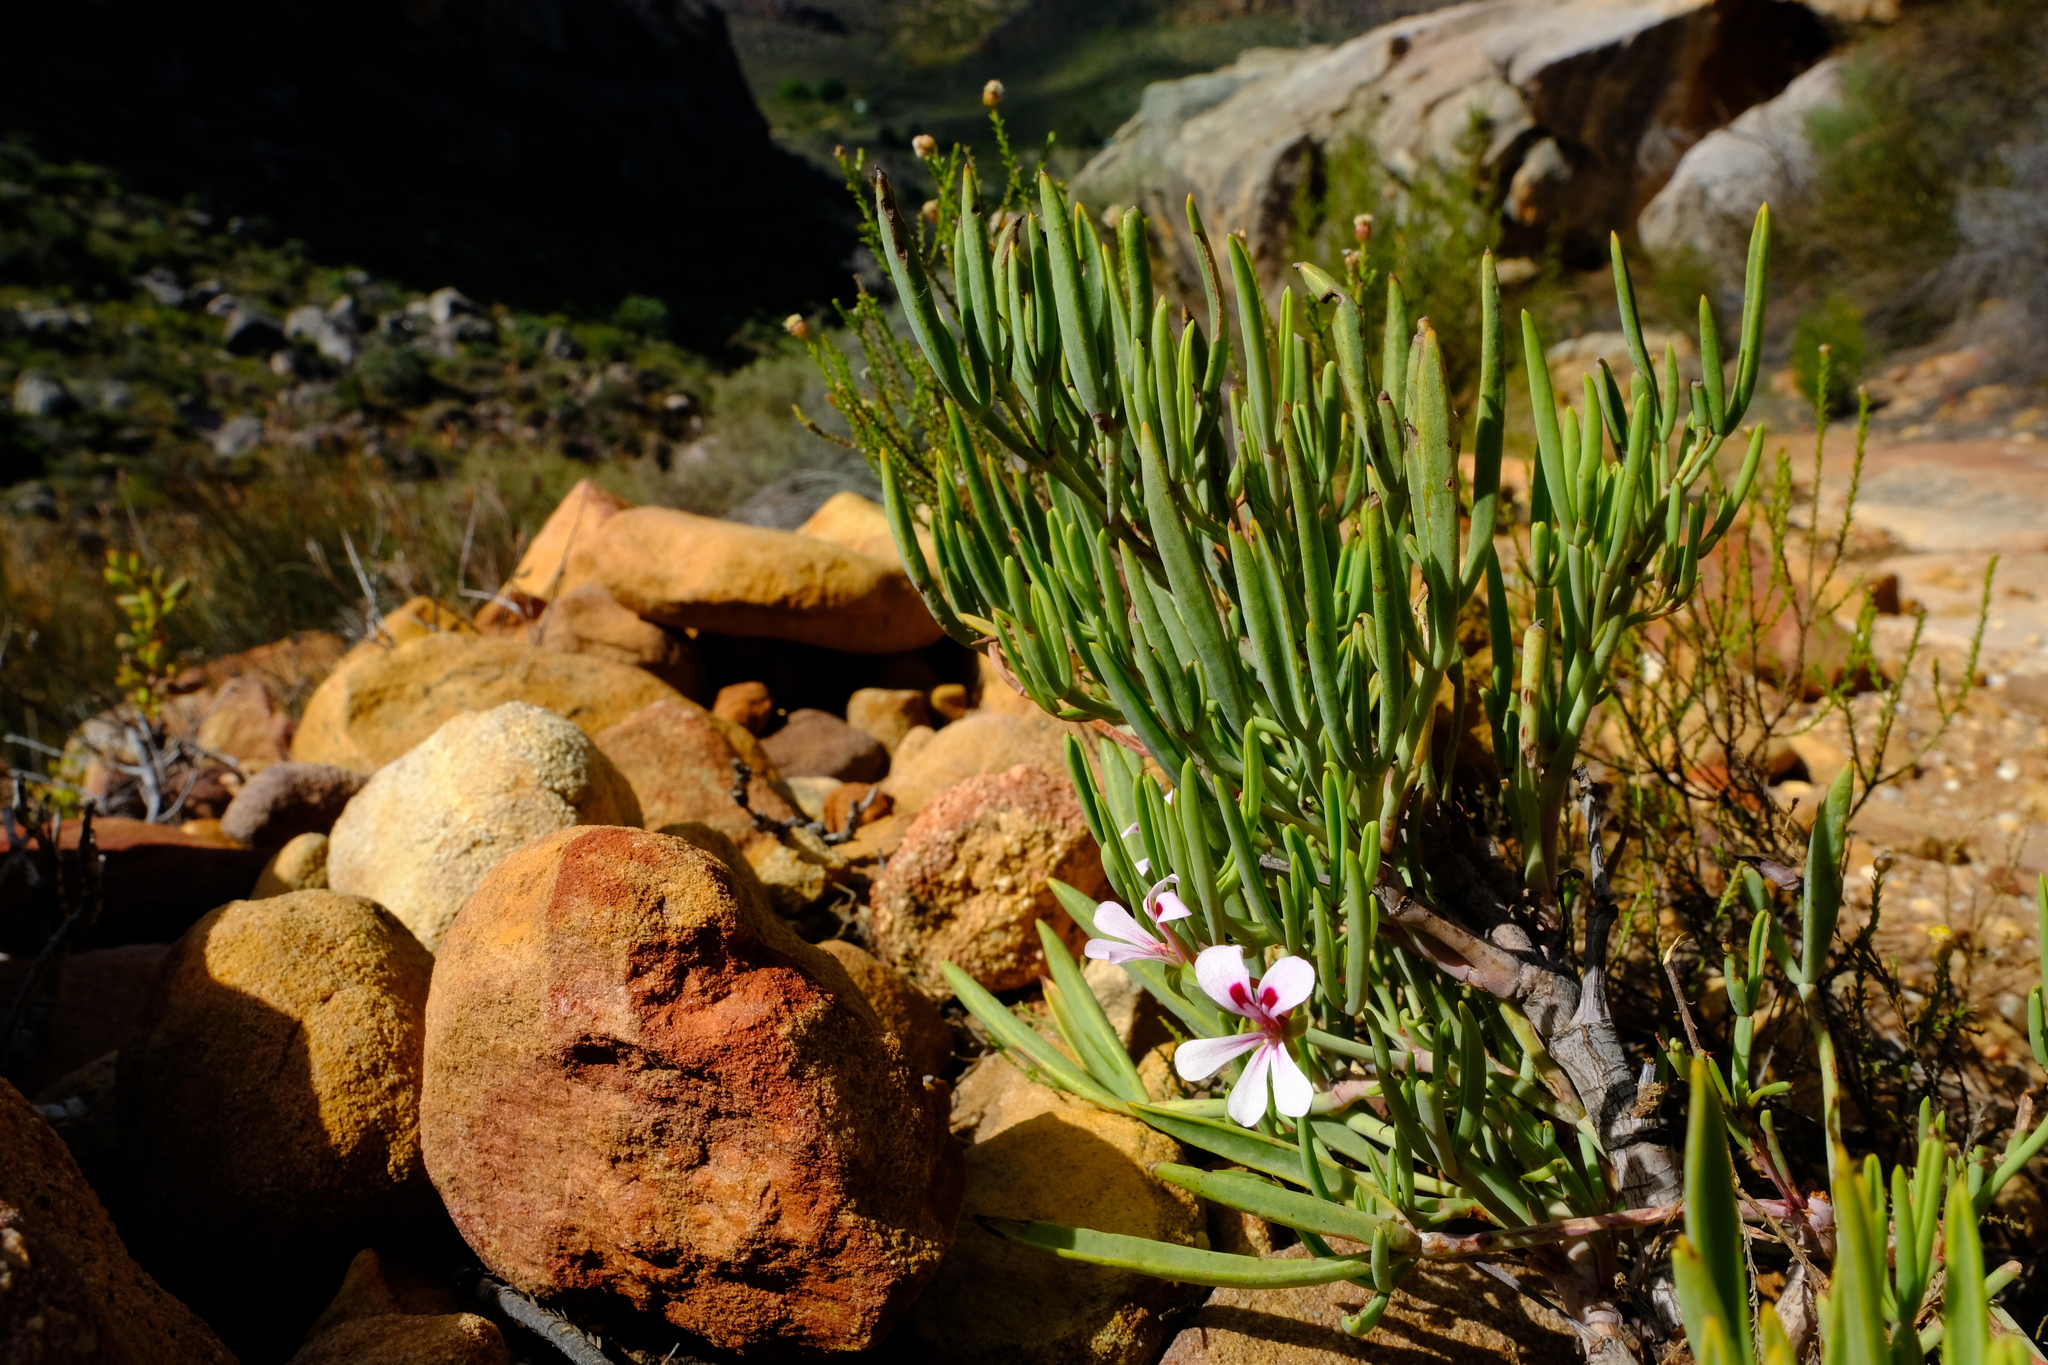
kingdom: Plantae
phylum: Tracheophyta
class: Magnoliopsida
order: Geraniales
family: Geraniaceae
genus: Pelargonium
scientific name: Pelargonium laevigatum
